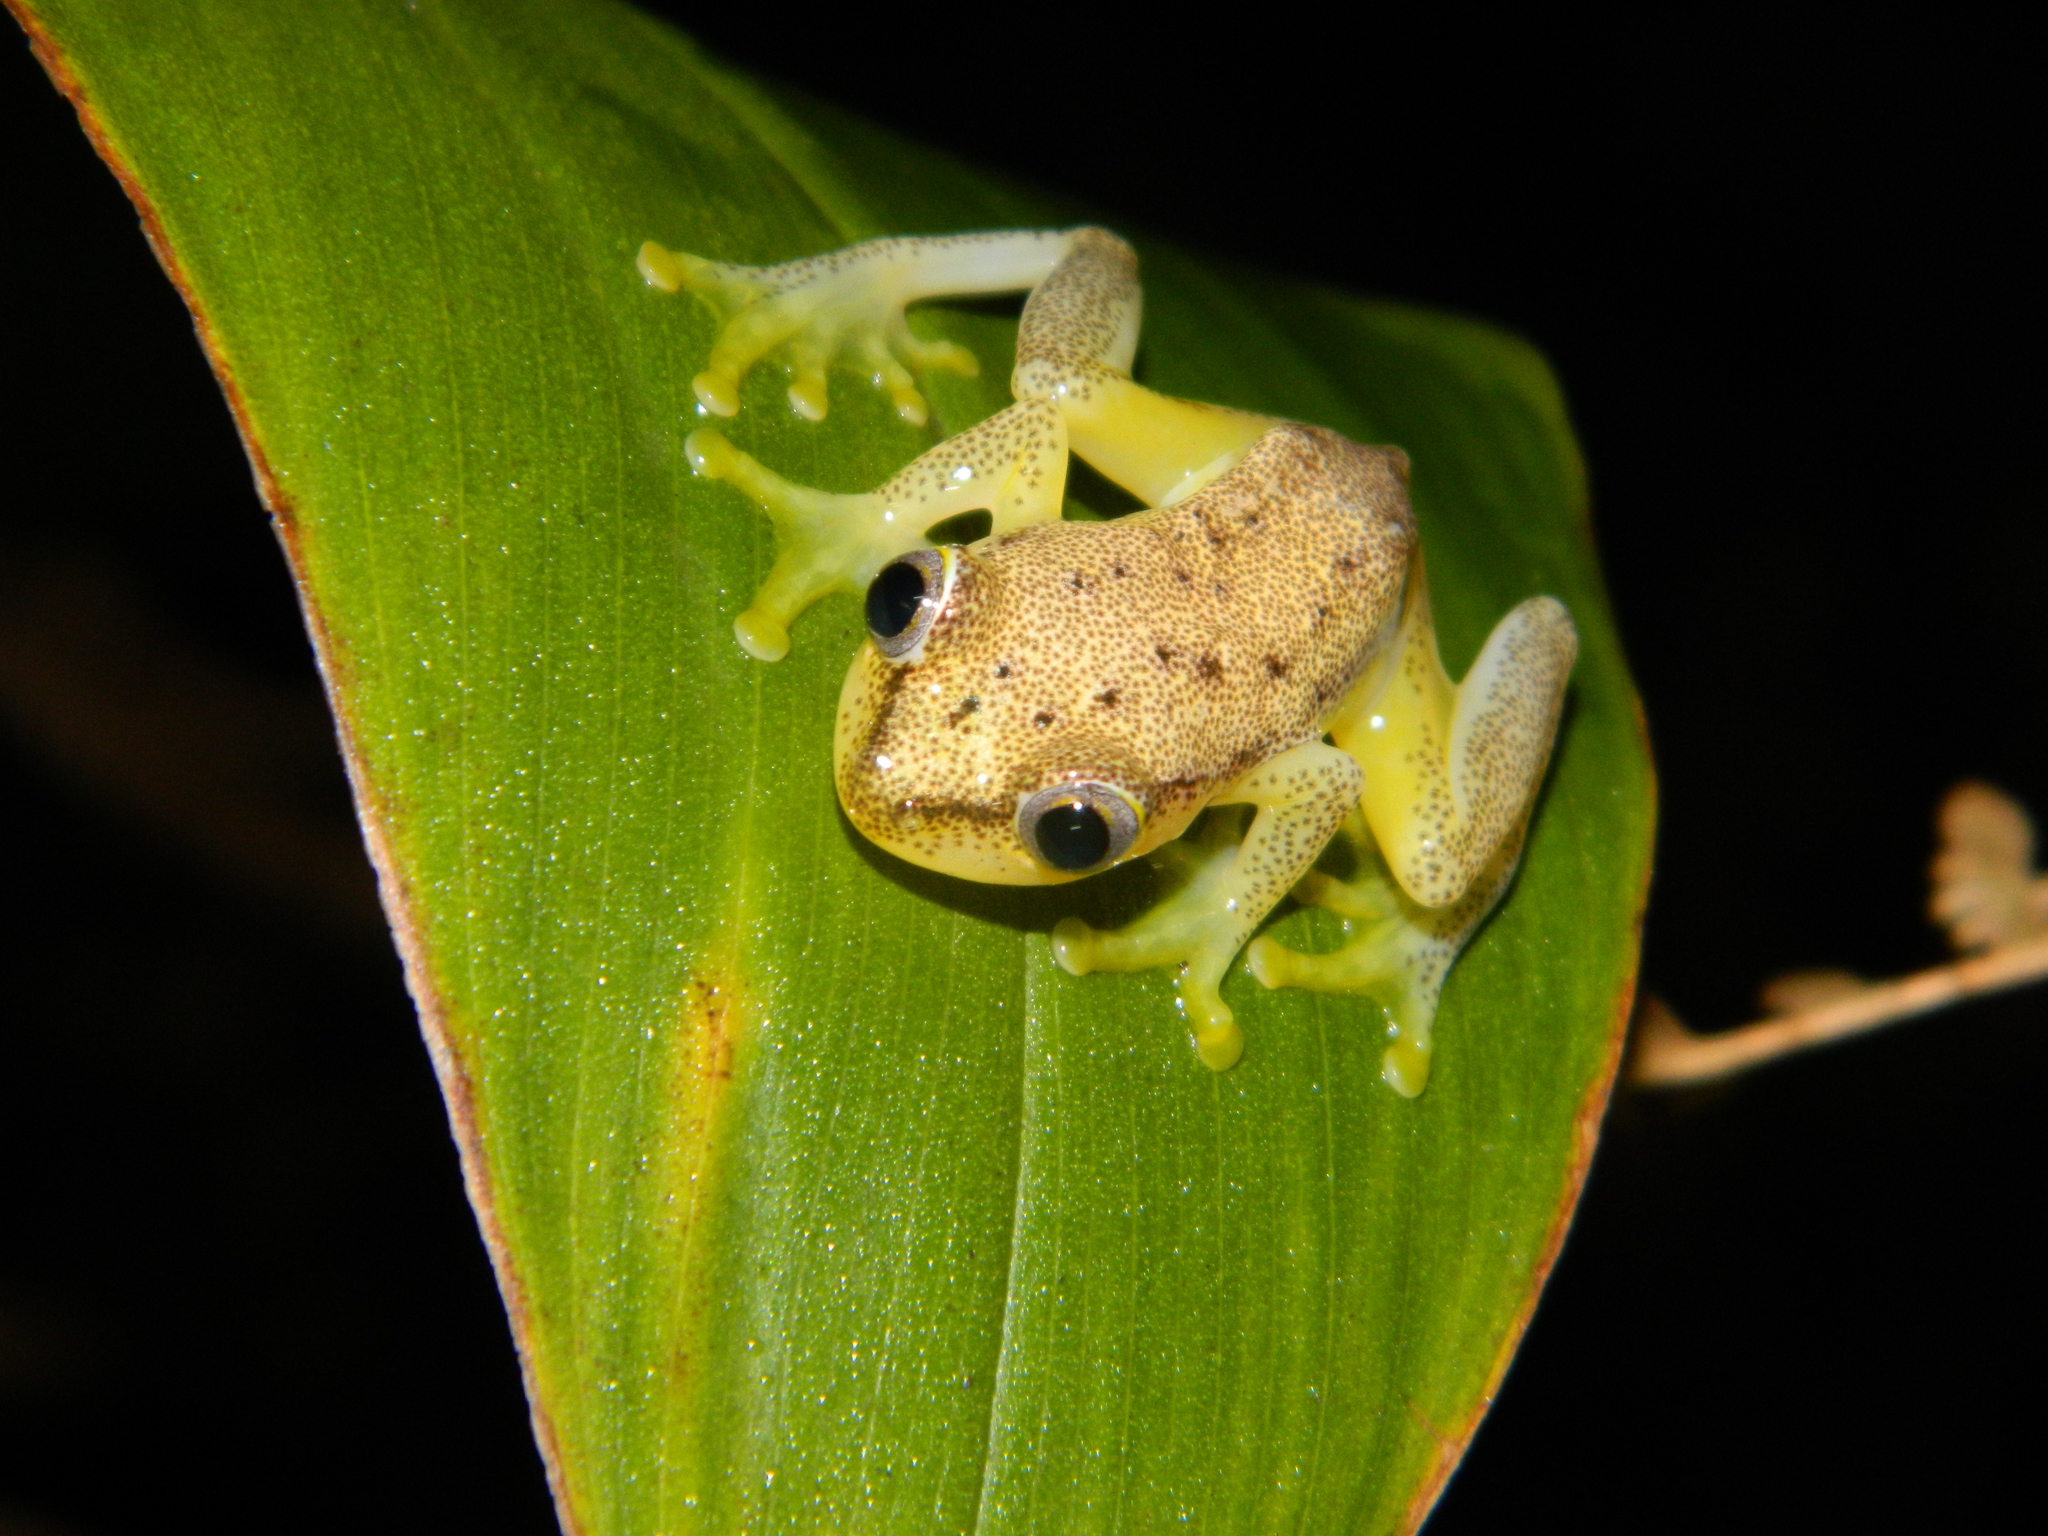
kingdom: Animalia
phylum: Chordata
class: Amphibia
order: Anura
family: Hyperoliidae
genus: Heterixalus
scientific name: Heterixalus betsileo
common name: Betsileo reed frog
